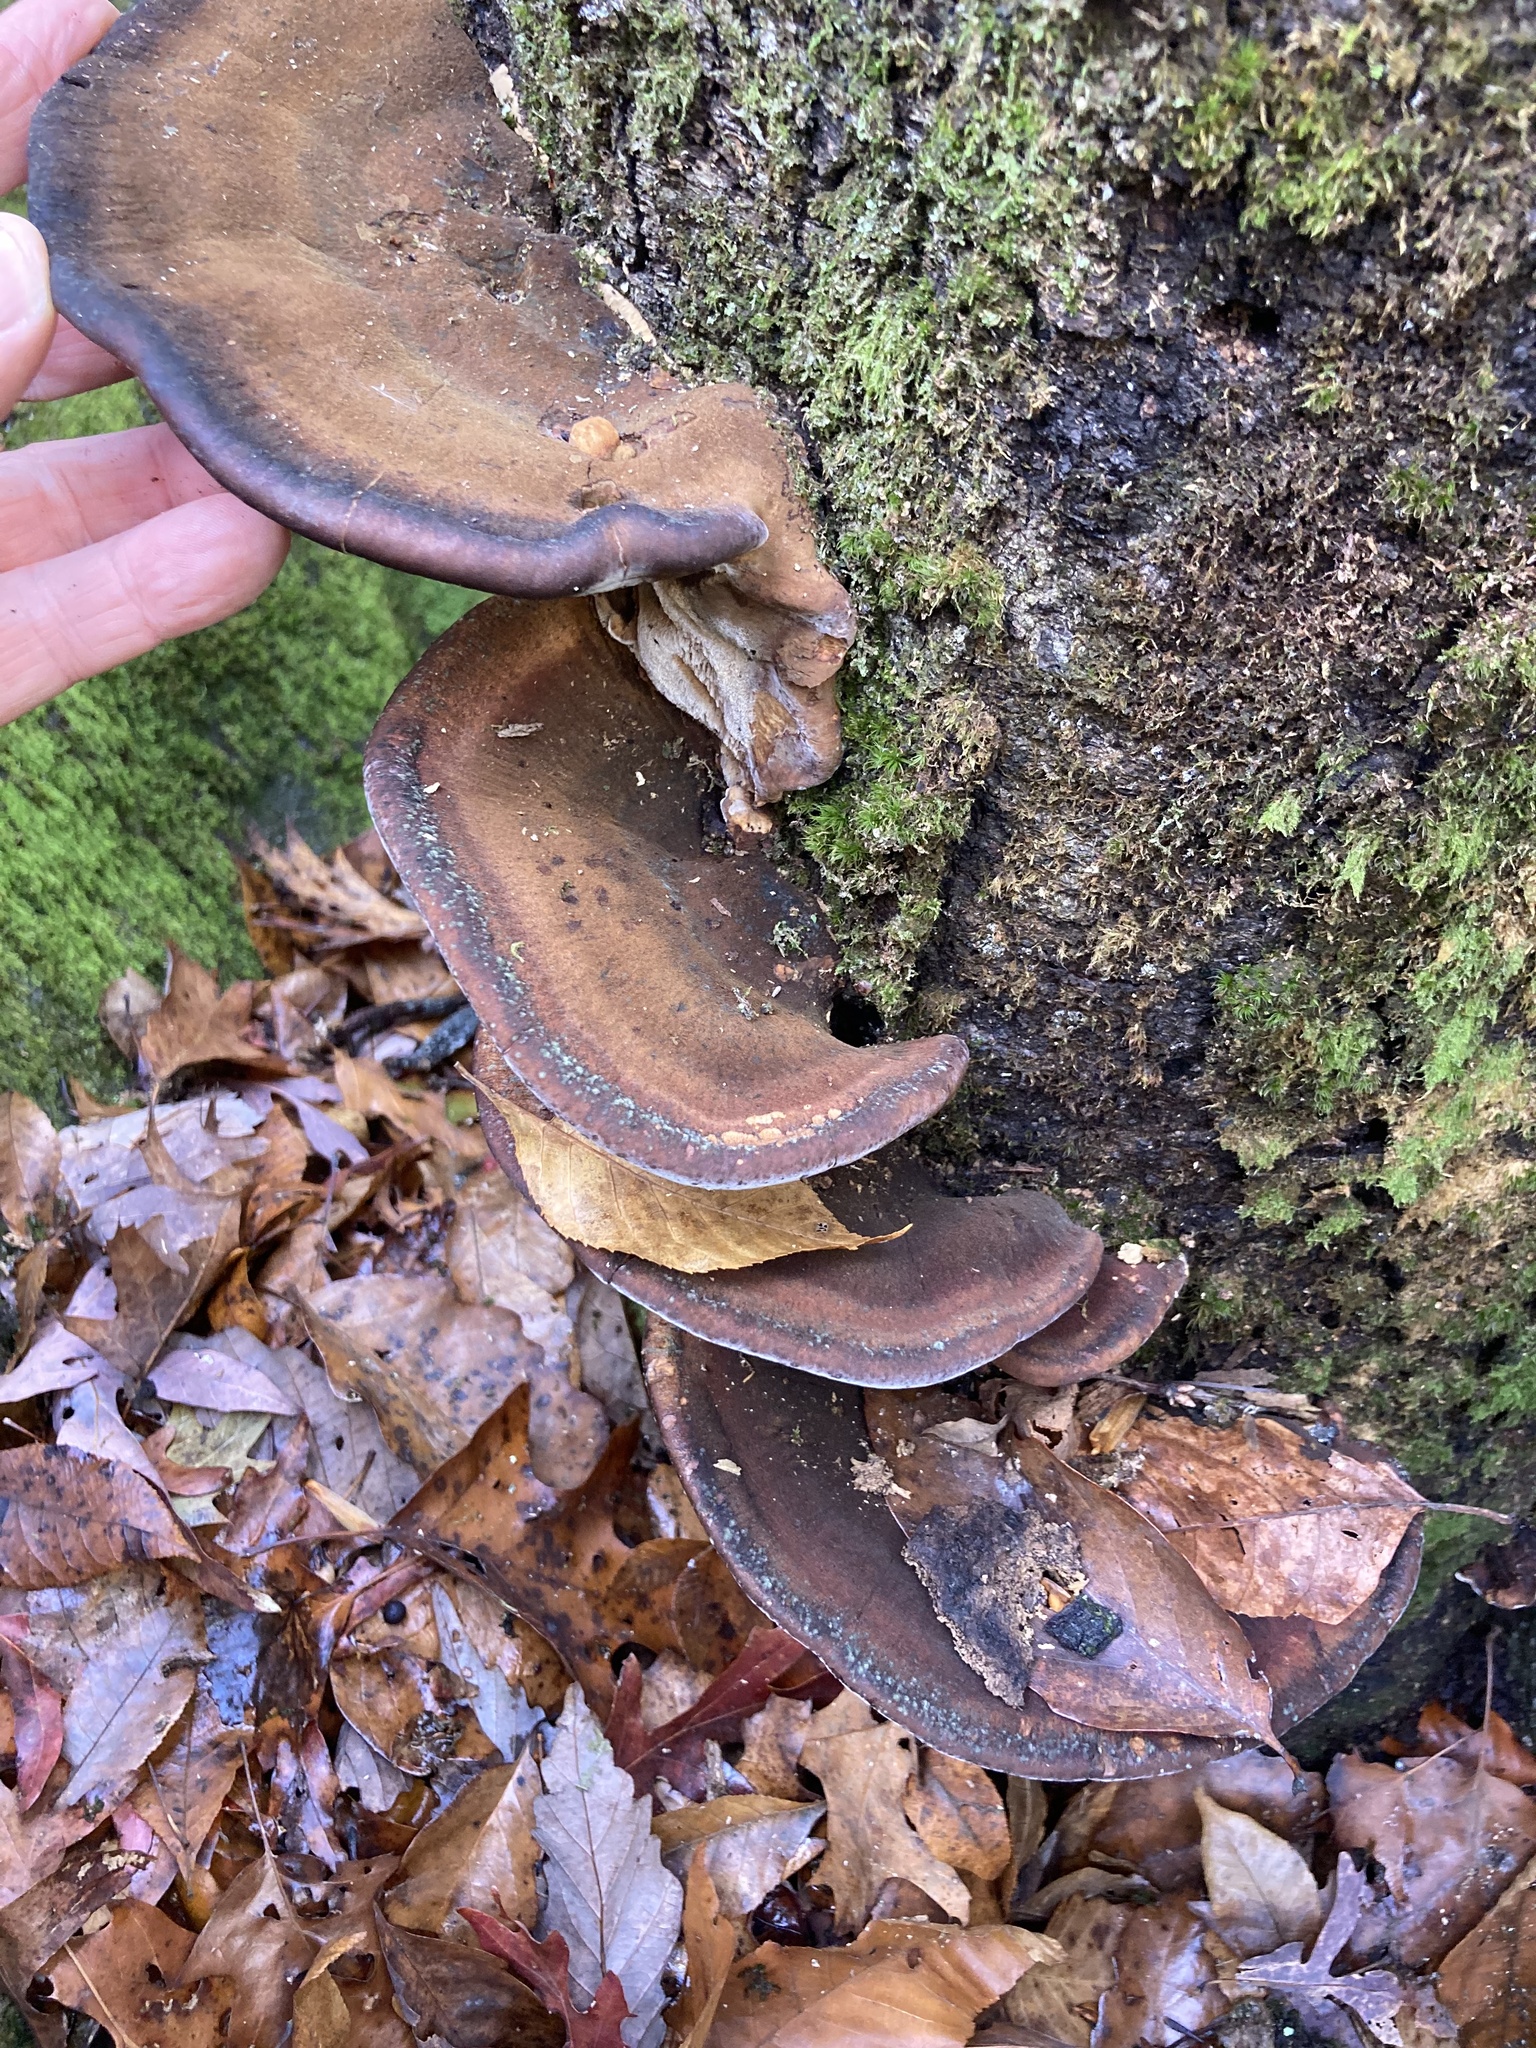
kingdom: Fungi
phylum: Basidiomycota
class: Agaricomycetes
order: Polyporales
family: Ischnodermataceae
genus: Ischnoderma
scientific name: Ischnoderma resinosum
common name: Resinous polypore
